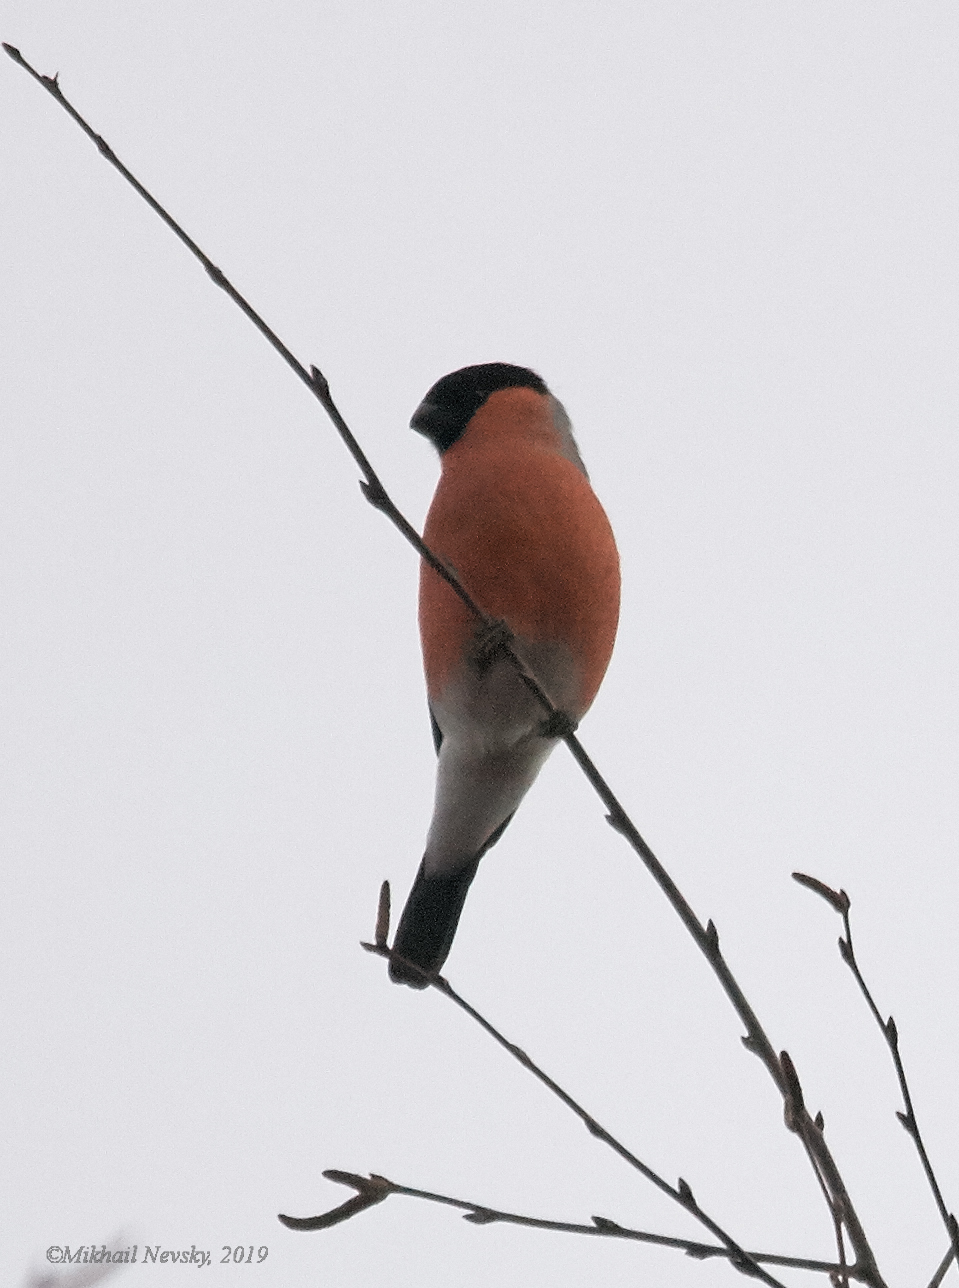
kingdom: Animalia
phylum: Chordata
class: Aves
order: Passeriformes
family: Fringillidae
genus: Pyrrhula
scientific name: Pyrrhula pyrrhula
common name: Eurasian bullfinch
